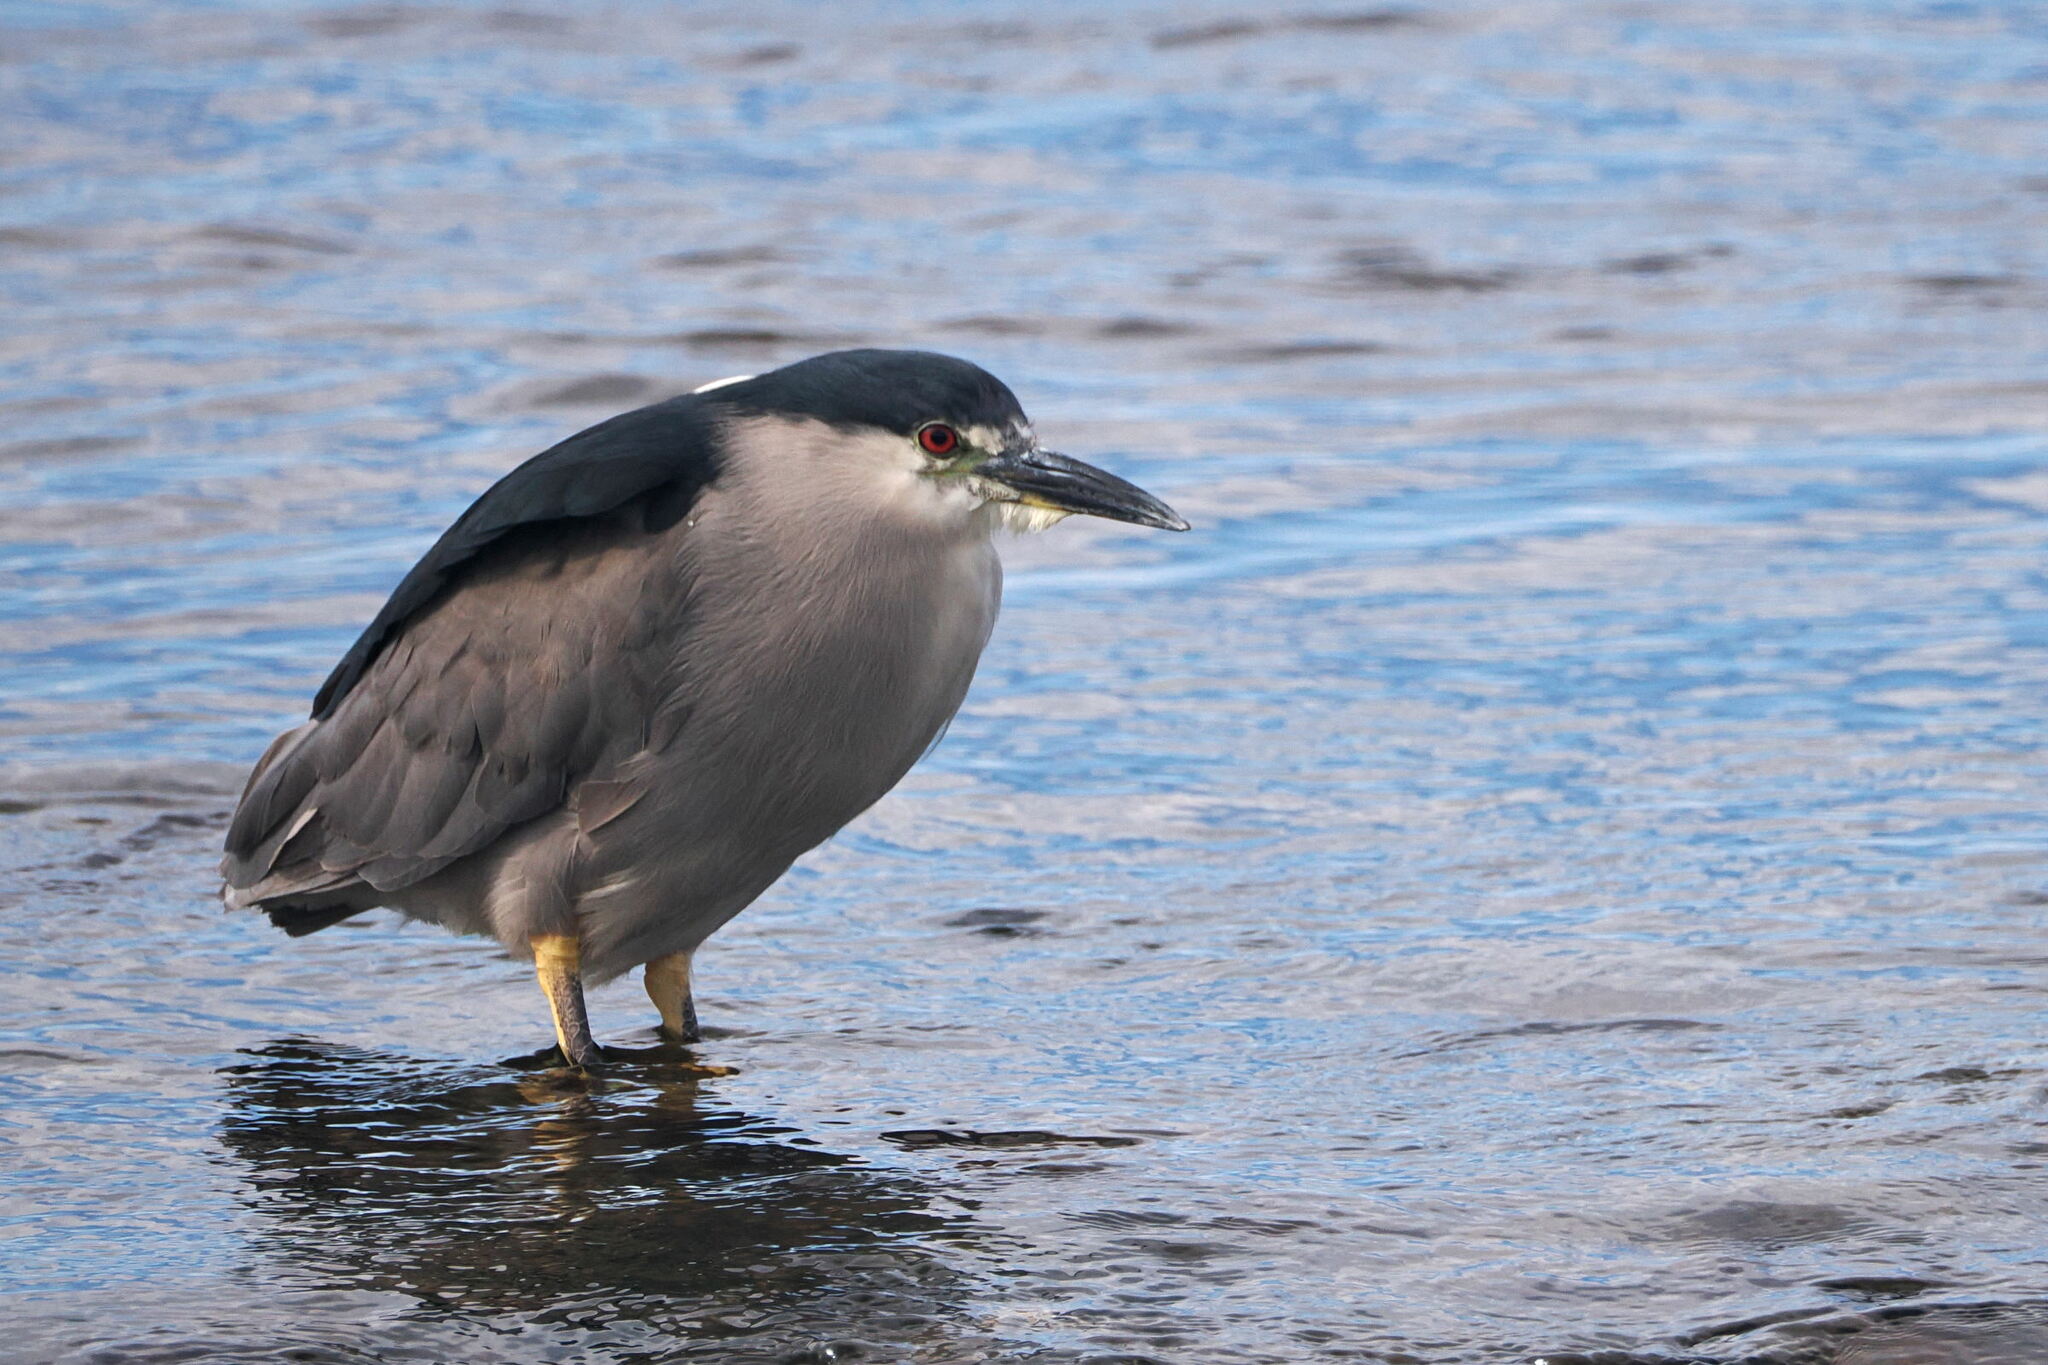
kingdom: Animalia
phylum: Chordata
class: Aves
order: Pelecaniformes
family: Ardeidae
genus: Nycticorax
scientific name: Nycticorax nycticorax
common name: Black-crowned night heron
